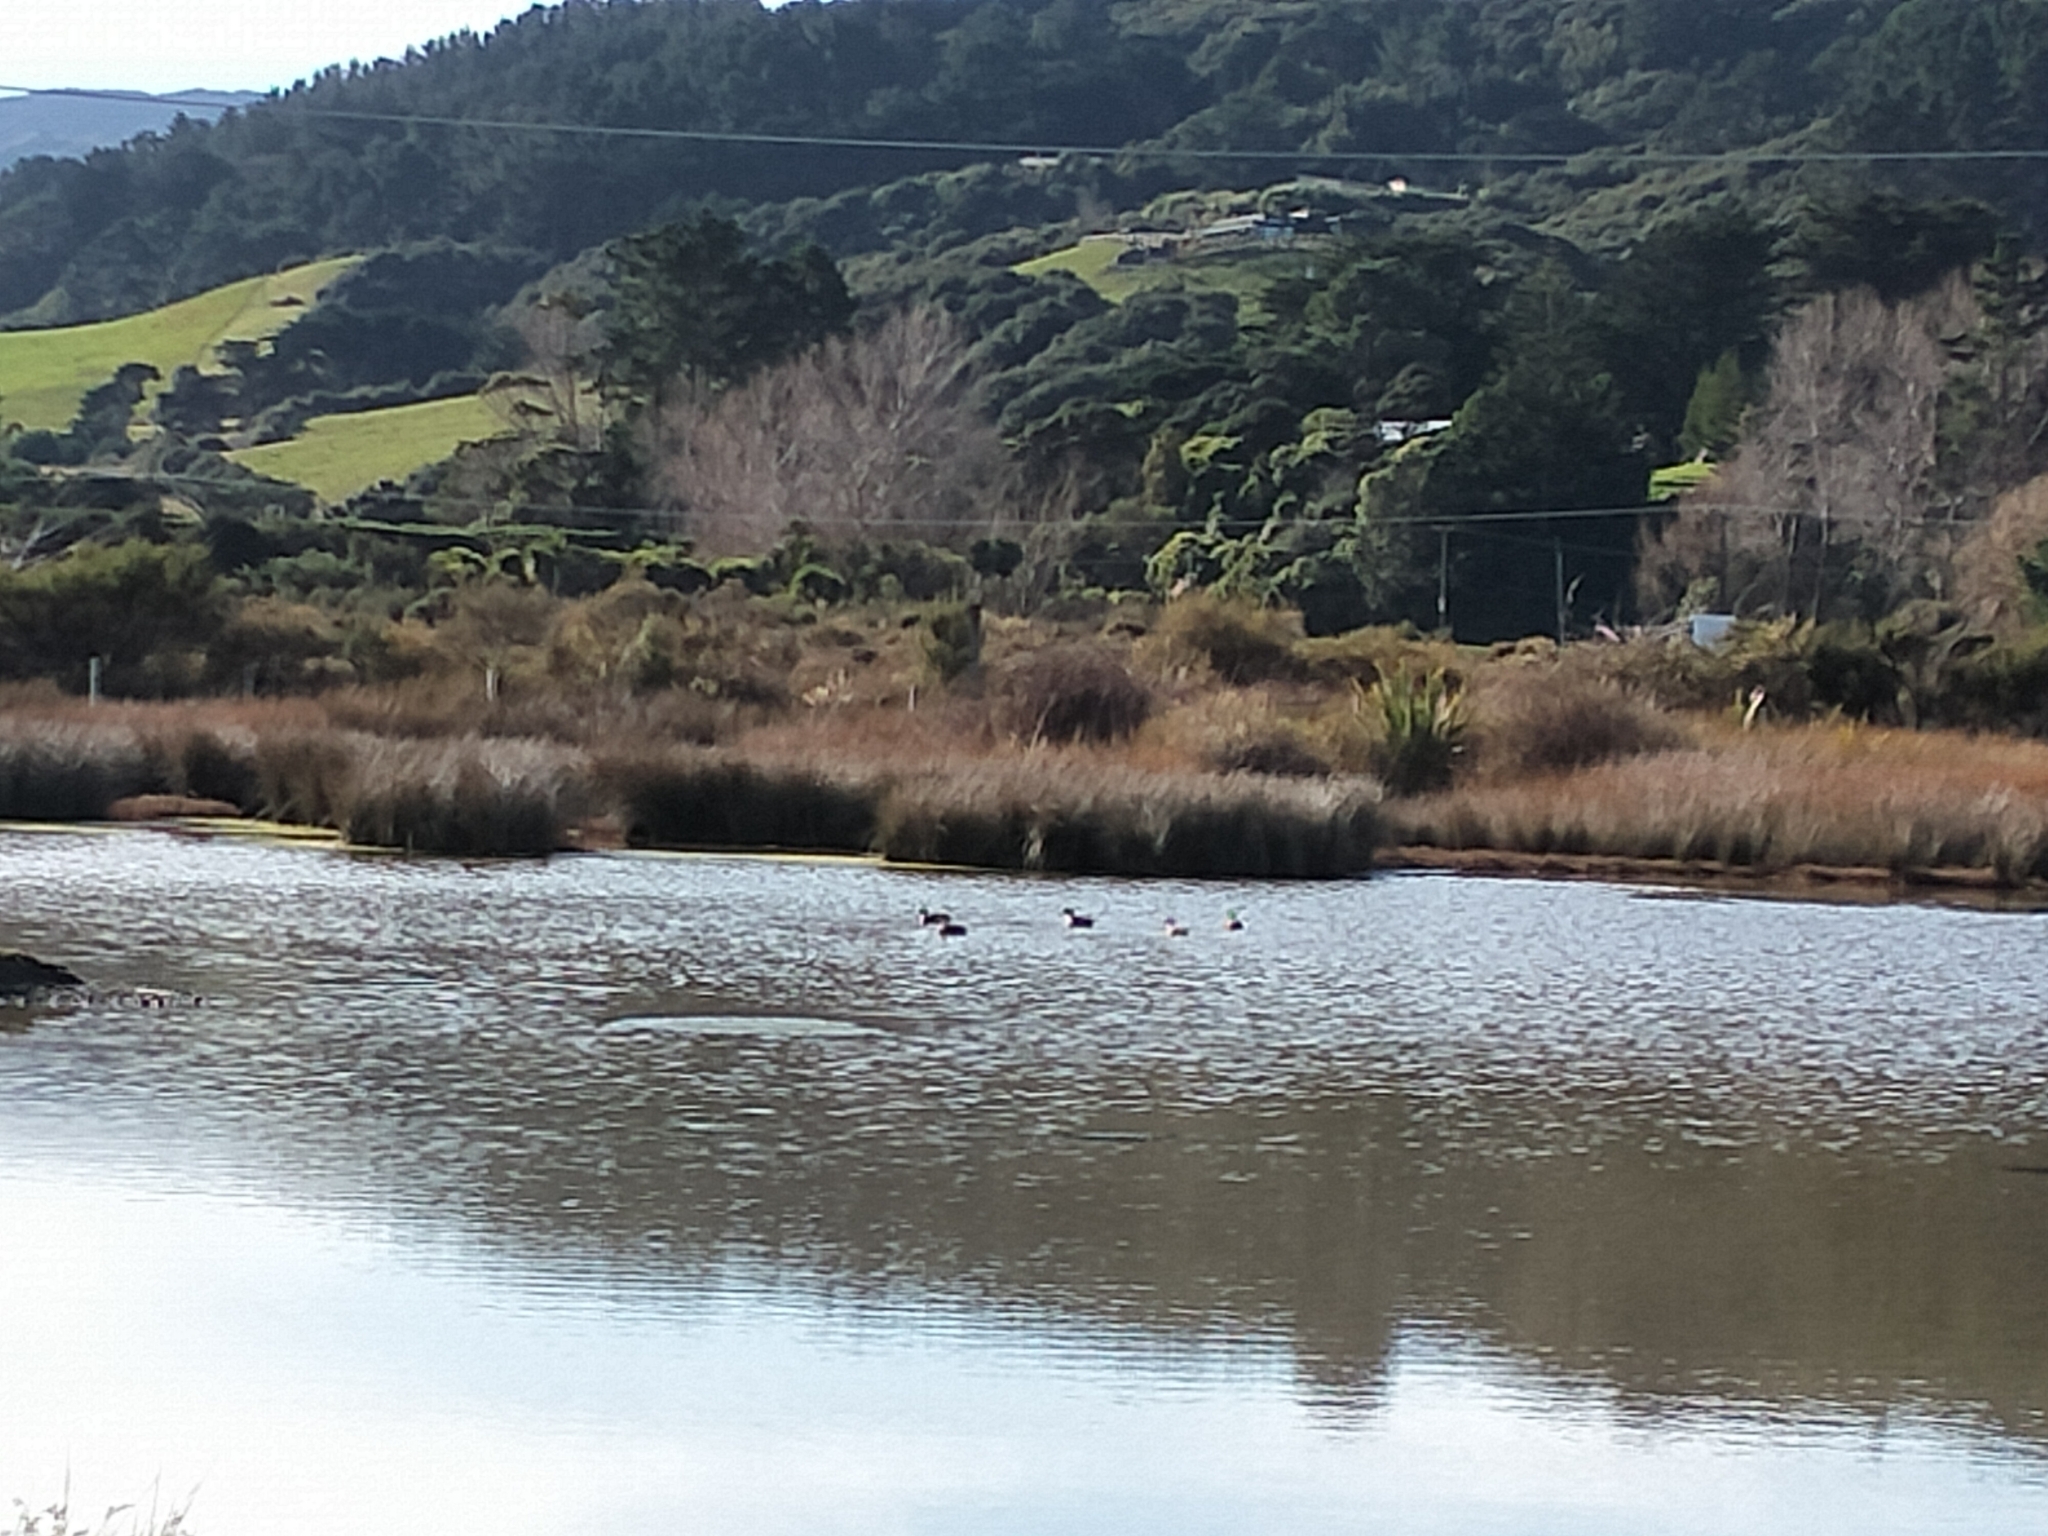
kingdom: Animalia
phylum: Chordata
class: Aves
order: Anseriformes
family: Anatidae
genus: Anas
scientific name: Anas gracilis
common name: Grey teal
